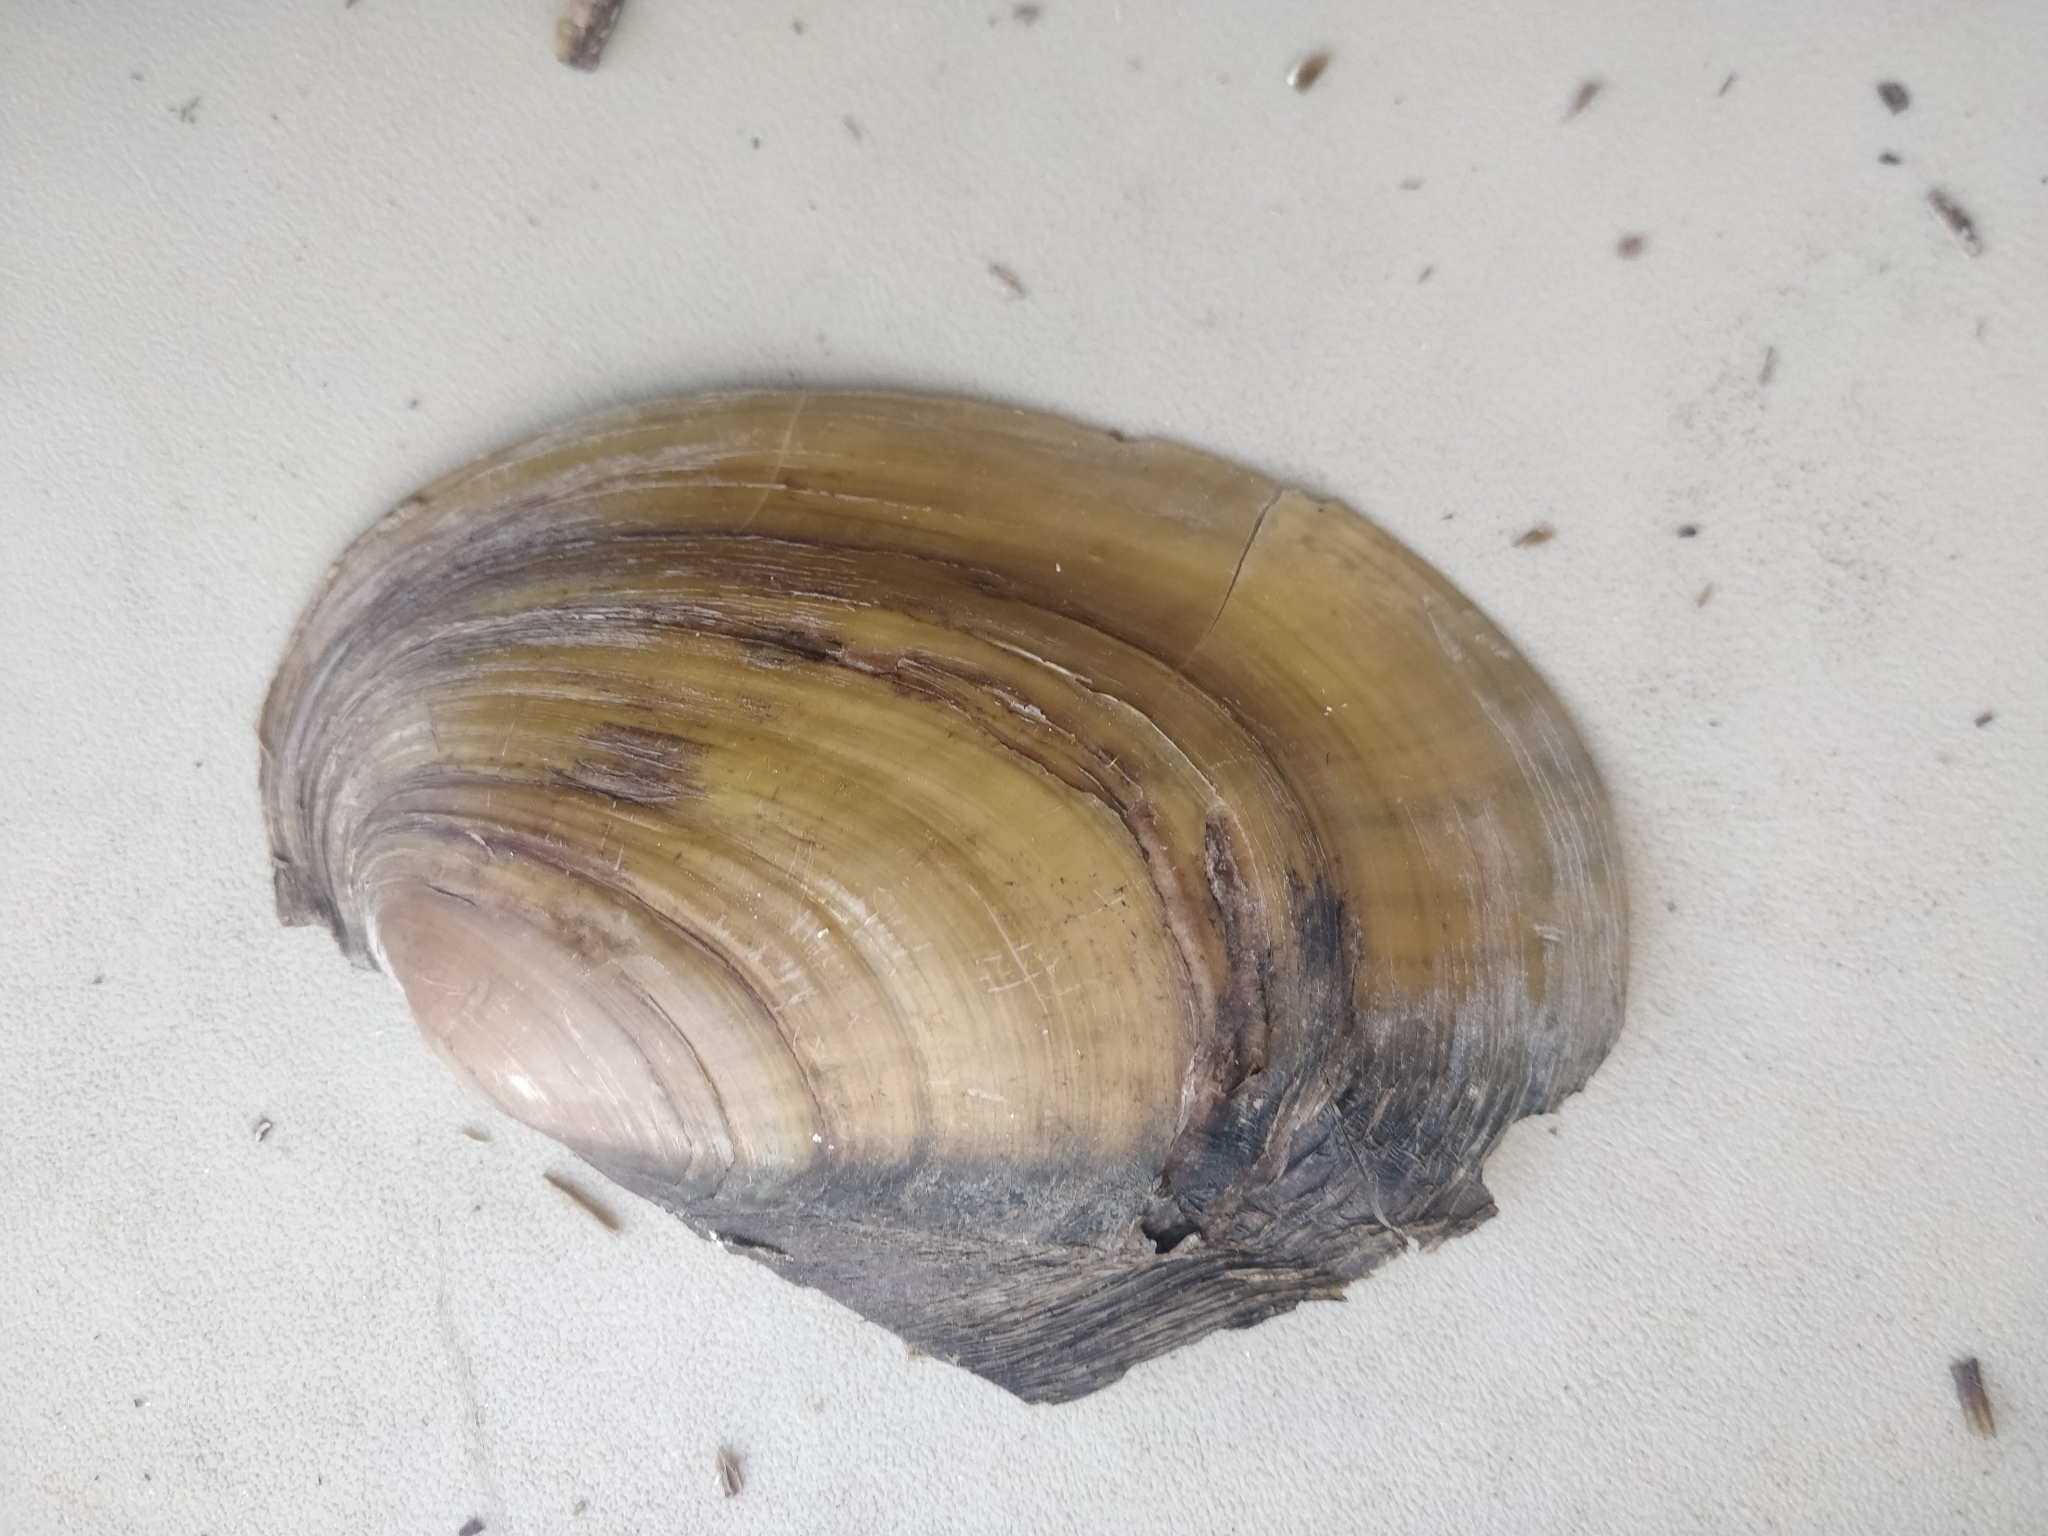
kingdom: Animalia
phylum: Mollusca
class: Bivalvia
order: Unionida
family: Unionidae
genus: Potamilus
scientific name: Potamilus fragilis
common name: Fragile papershell
